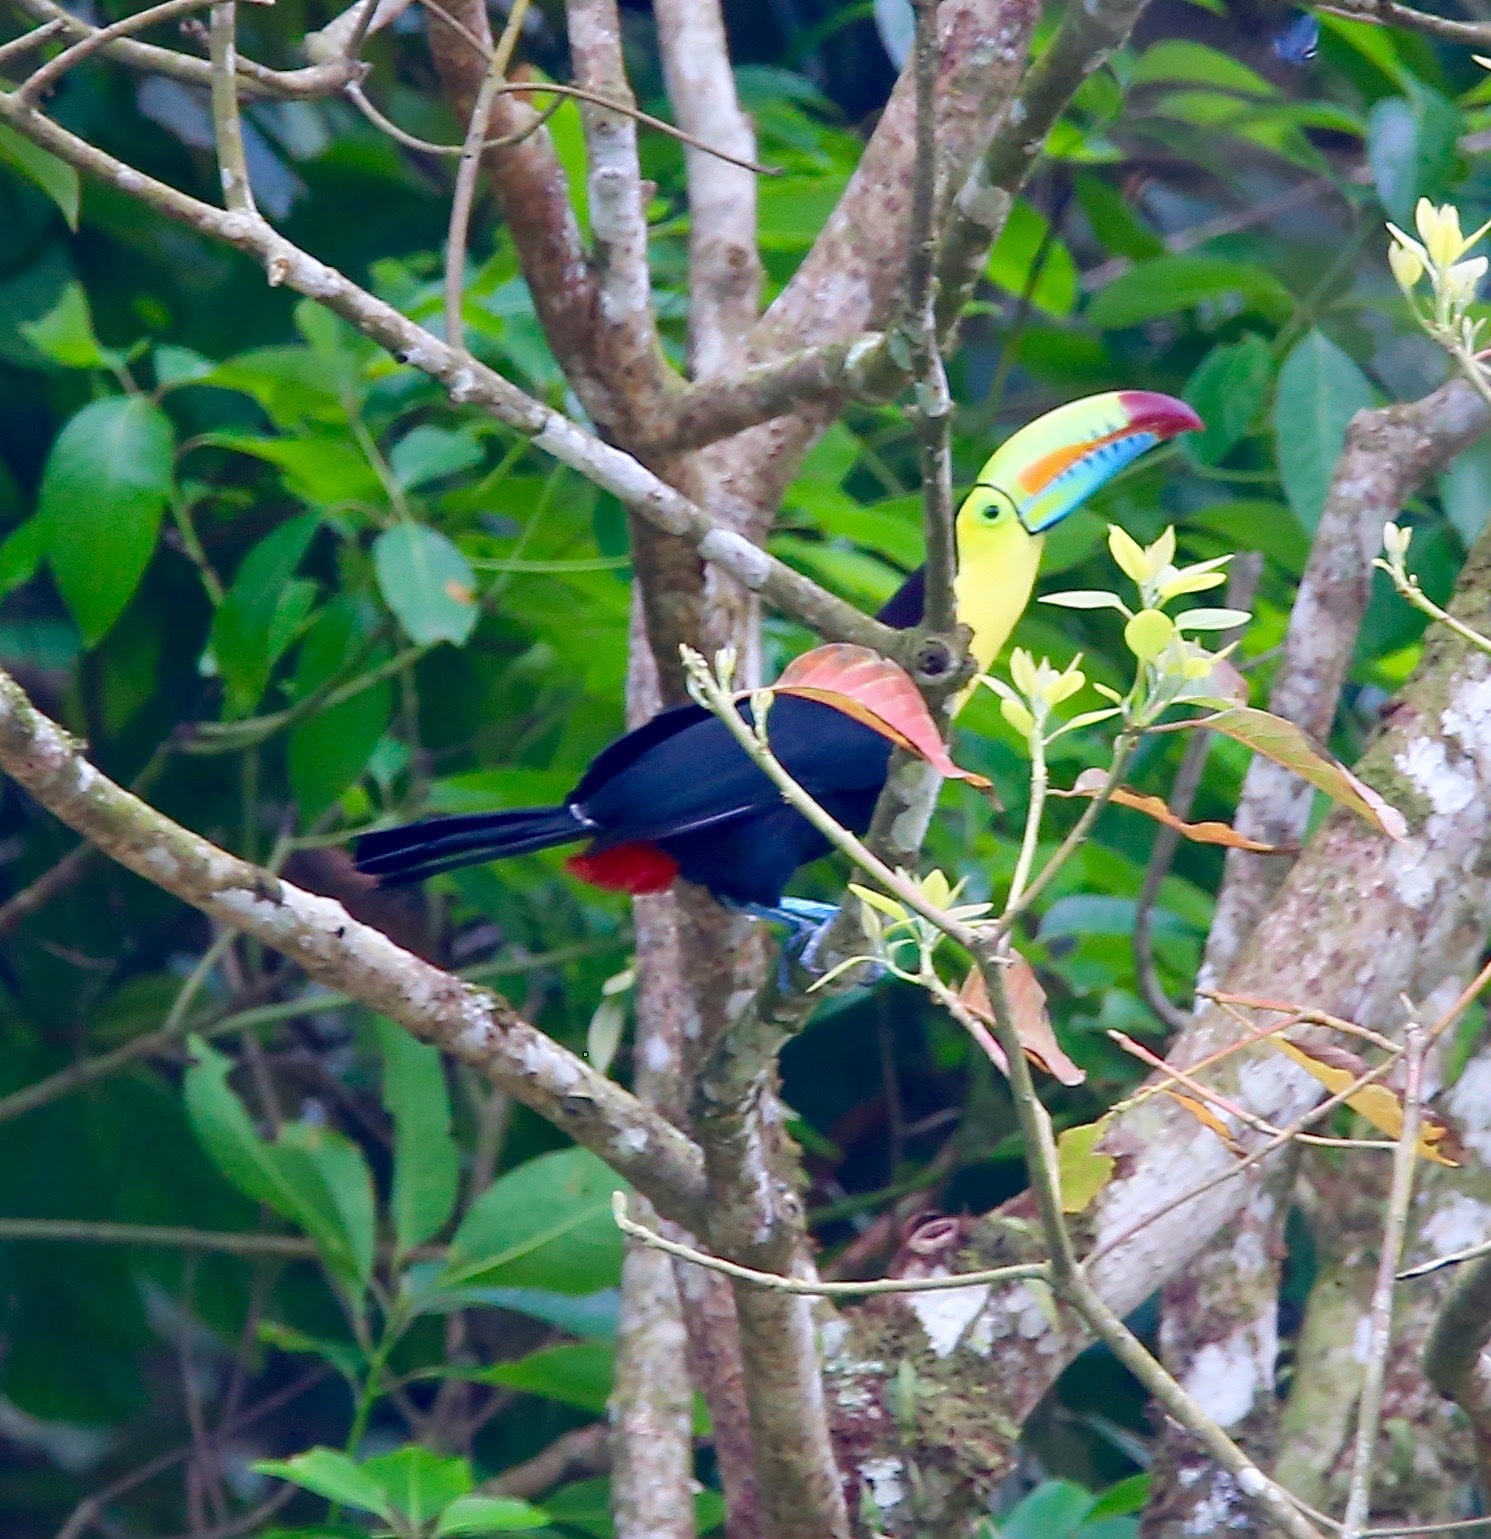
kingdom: Animalia
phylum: Chordata
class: Aves
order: Piciformes
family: Ramphastidae
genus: Ramphastos
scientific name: Ramphastos sulfuratus
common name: Keel-billed toucan
